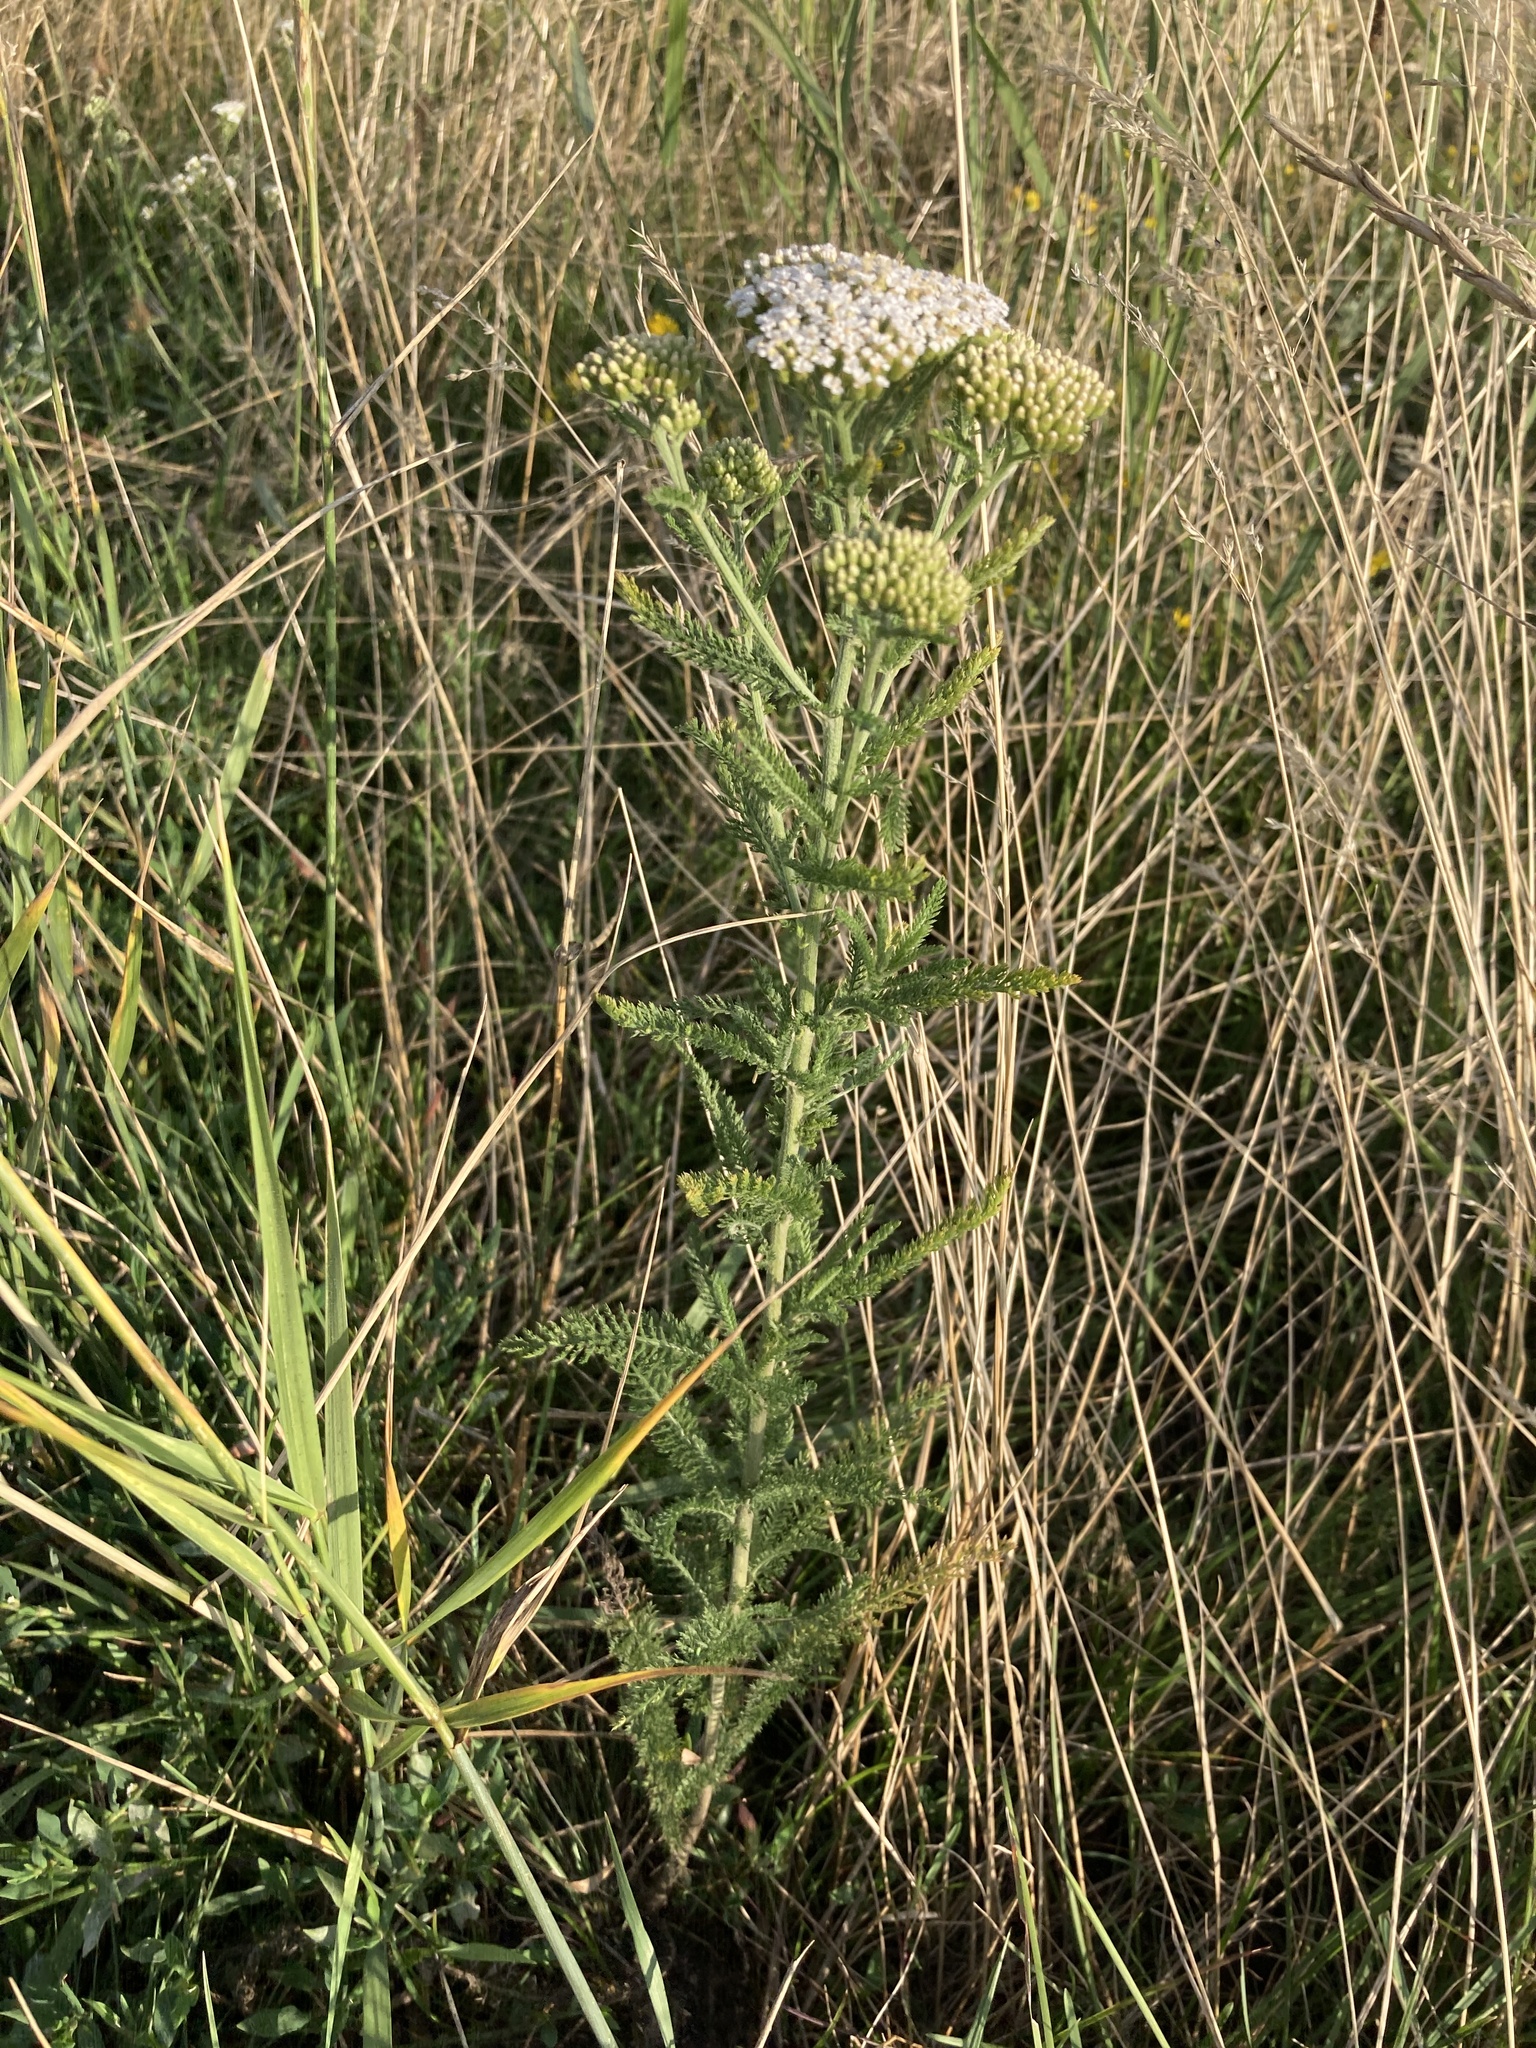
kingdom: Plantae
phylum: Tracheophyta
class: Magnoliopsida
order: Asterales
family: Asteraceae
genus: Achillea
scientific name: Achillea setacea
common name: Bristly yarrow
